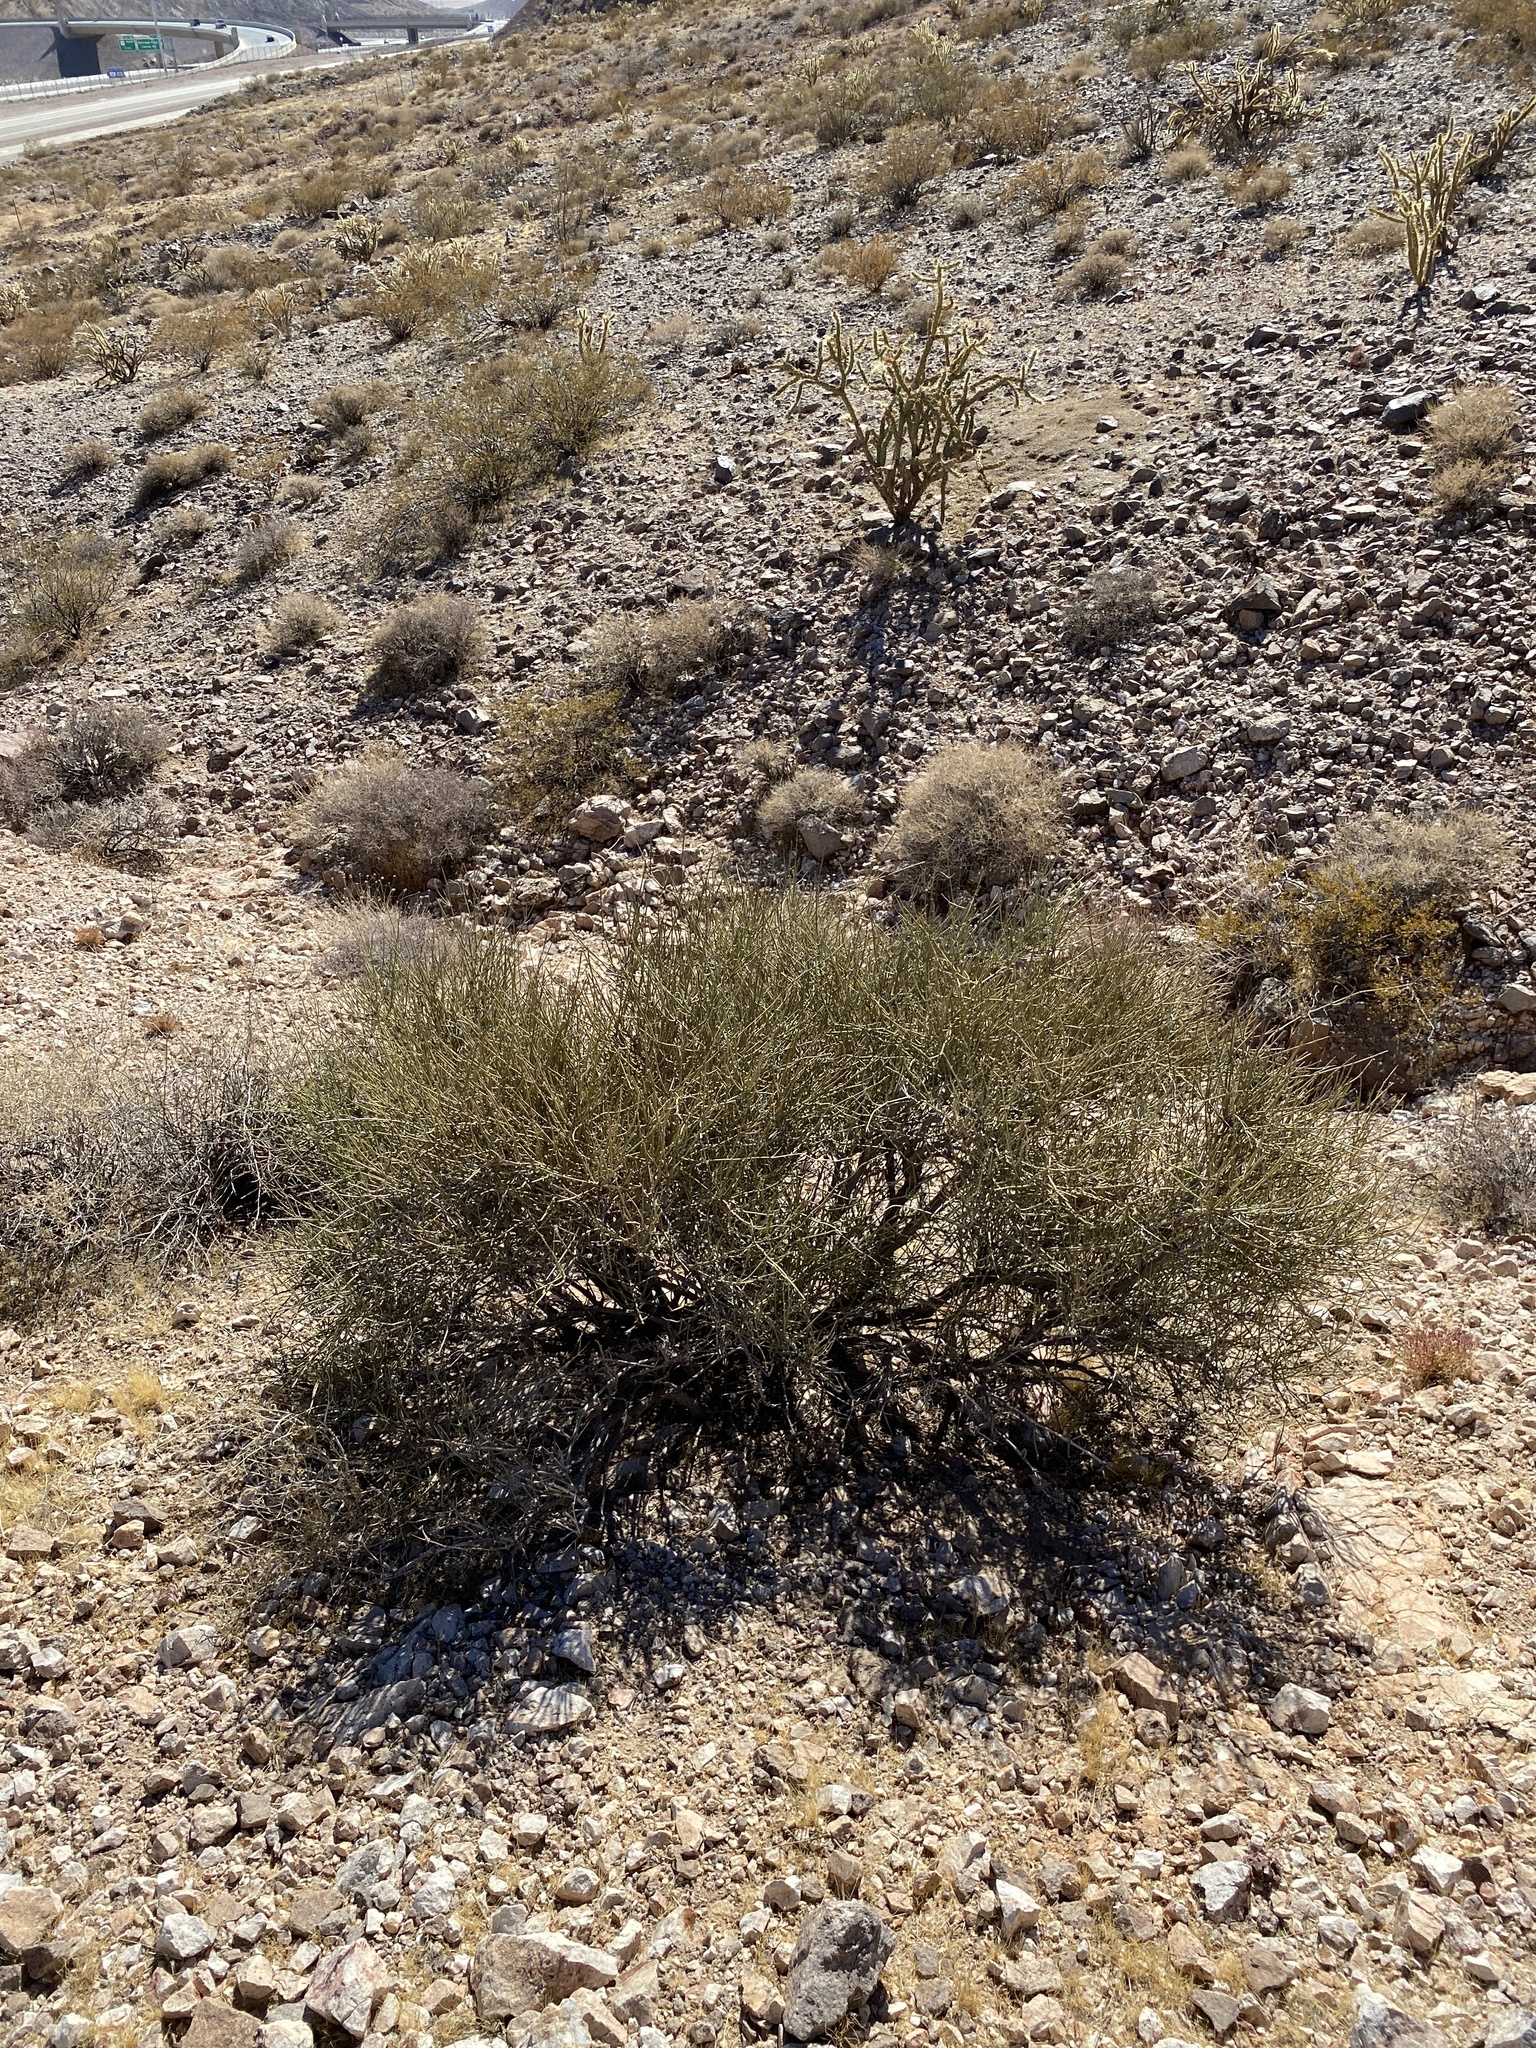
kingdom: Plantae
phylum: Tracheophyta
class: Gnetopsida
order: Ephedrales
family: Ephedraceae
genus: Ephedra
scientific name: Ephedra nevadensis
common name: Gray ephedra
